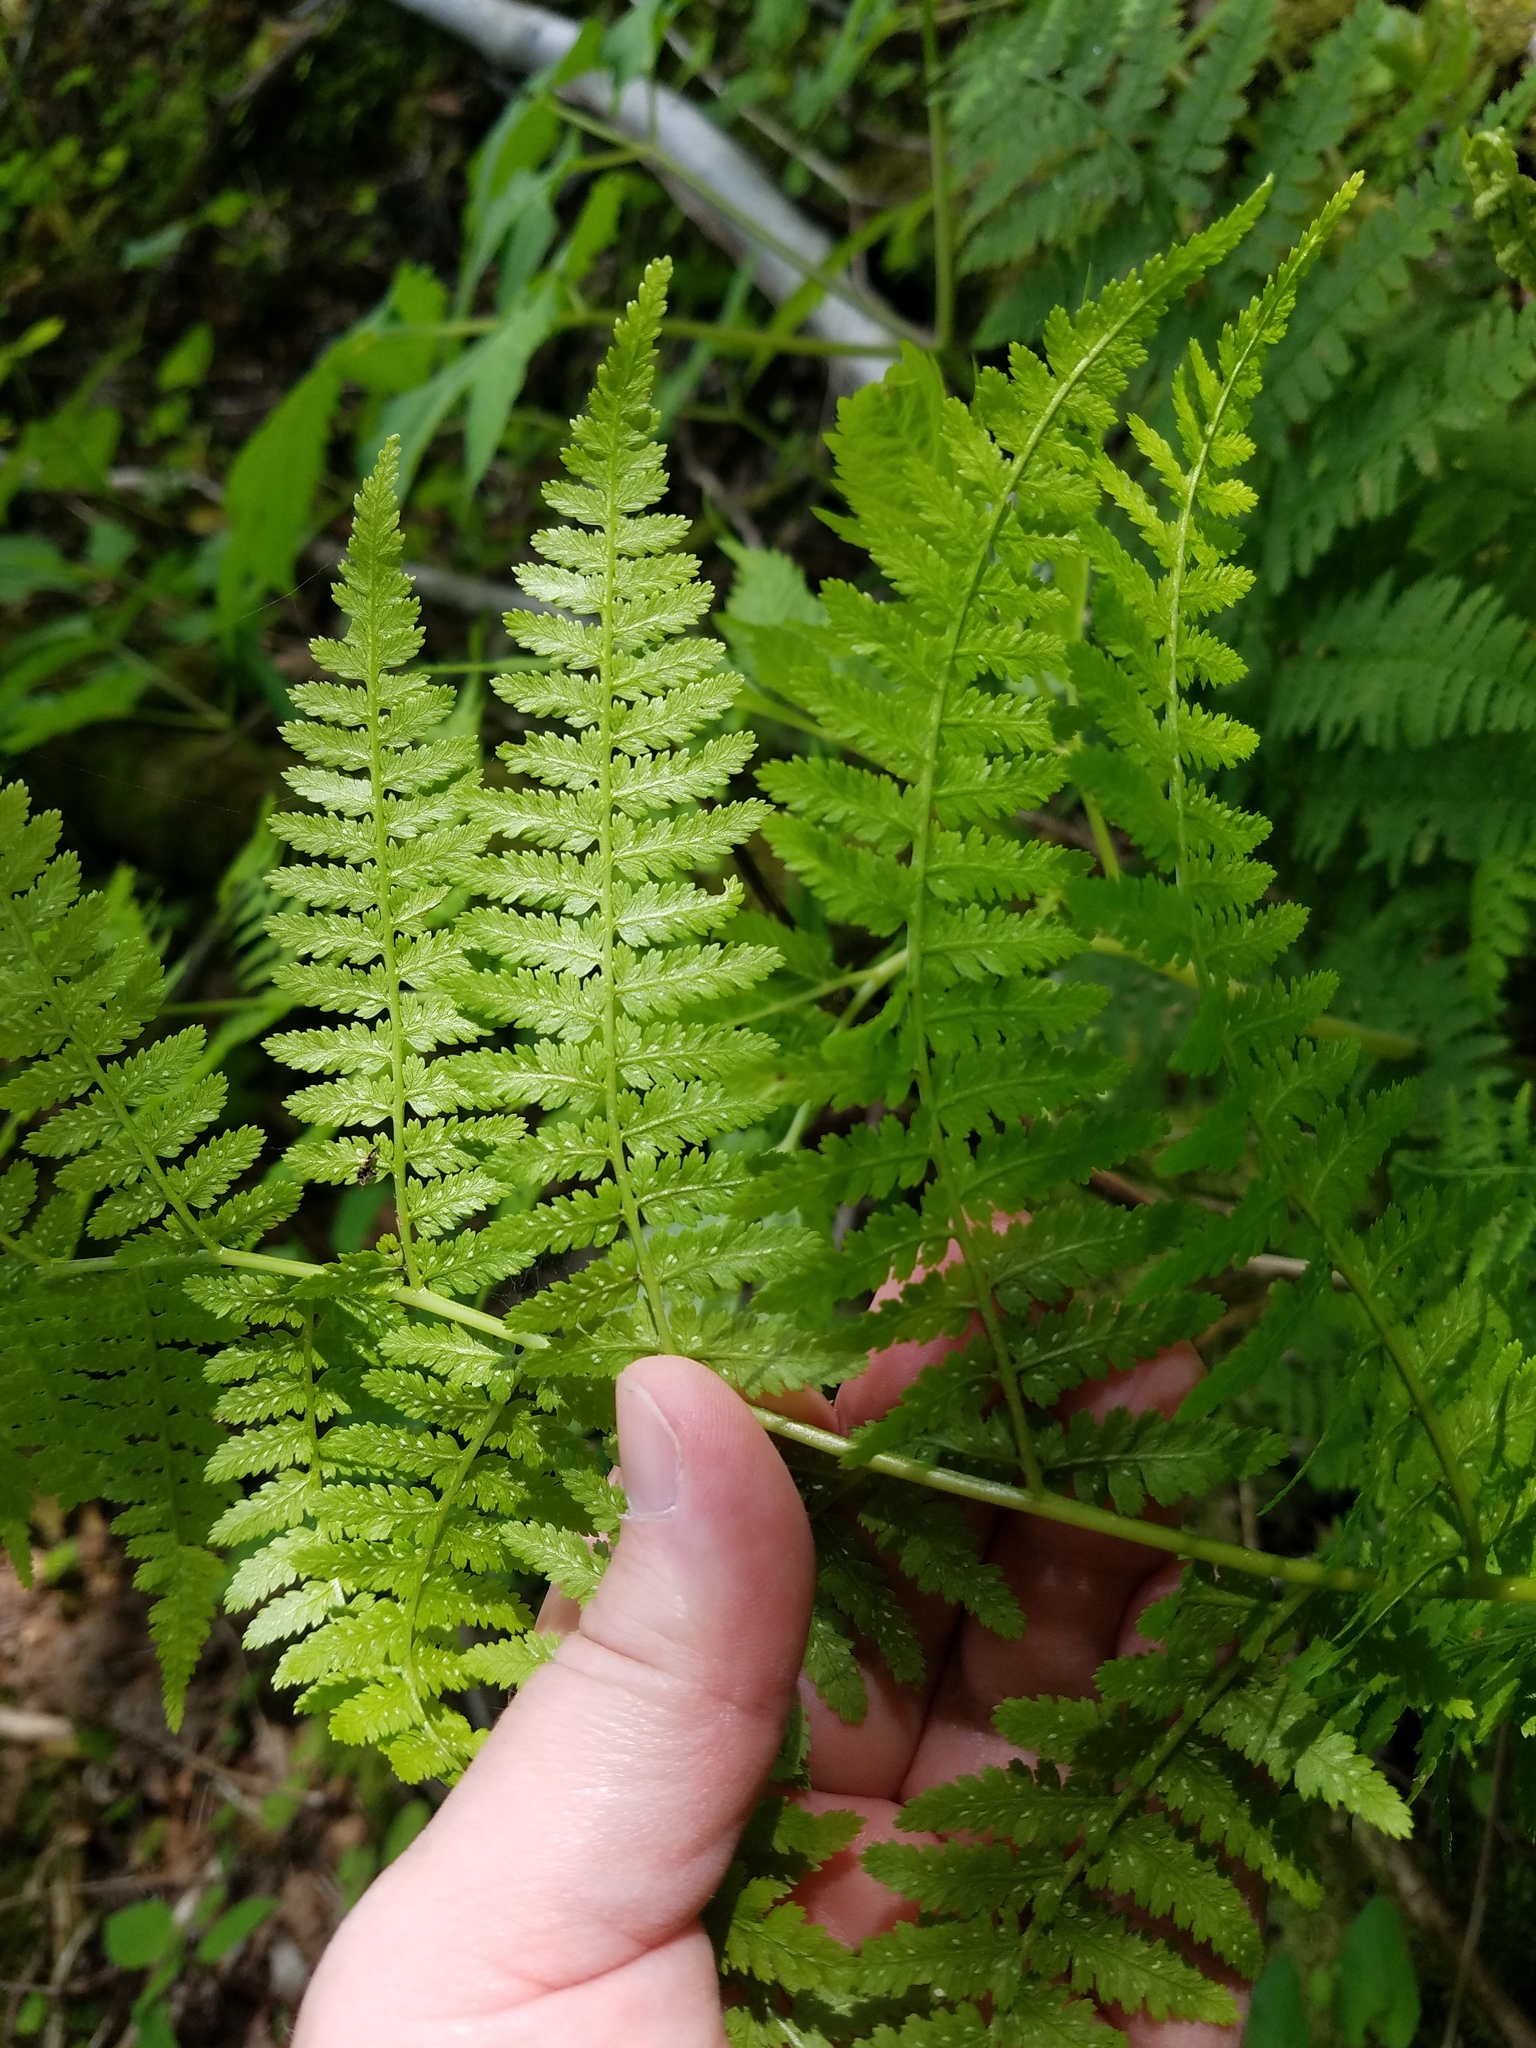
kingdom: Plantae
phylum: Tracheophyta
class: Polypodiopsida
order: Polypodiales
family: Athyriaceae
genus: Athyrium
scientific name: Athyrium asplenioides
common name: Southern lady fern
